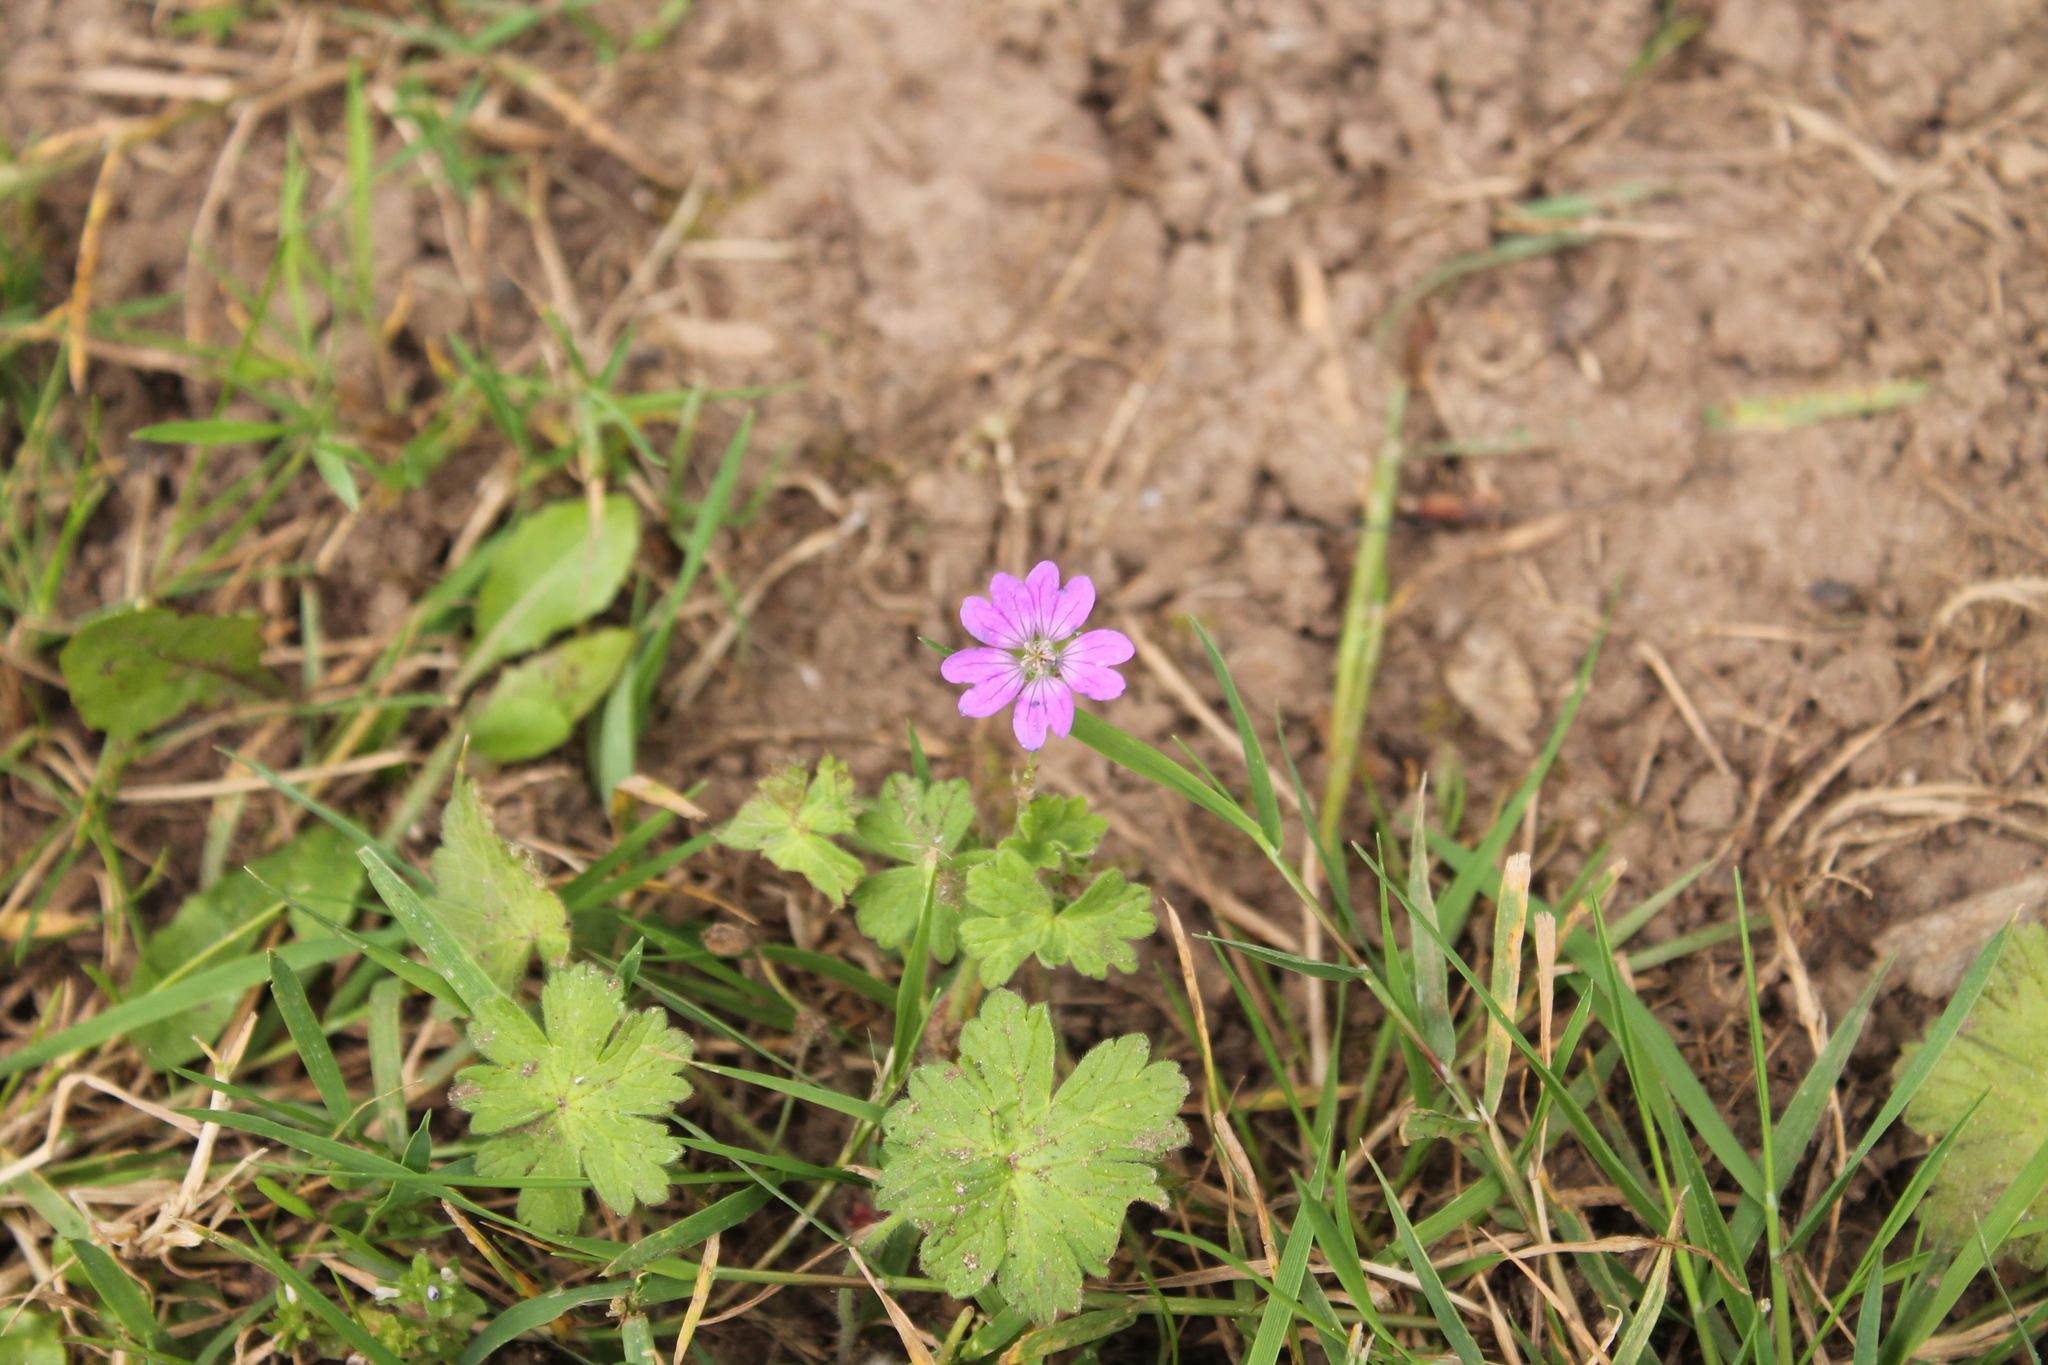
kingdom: Plantae
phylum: Tracheophyta
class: Magnoliopsida
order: Geraniales
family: Geraniaceae
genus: Geranium
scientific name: Geranium pyrenaicum
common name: Hedgerow crane's-bill
